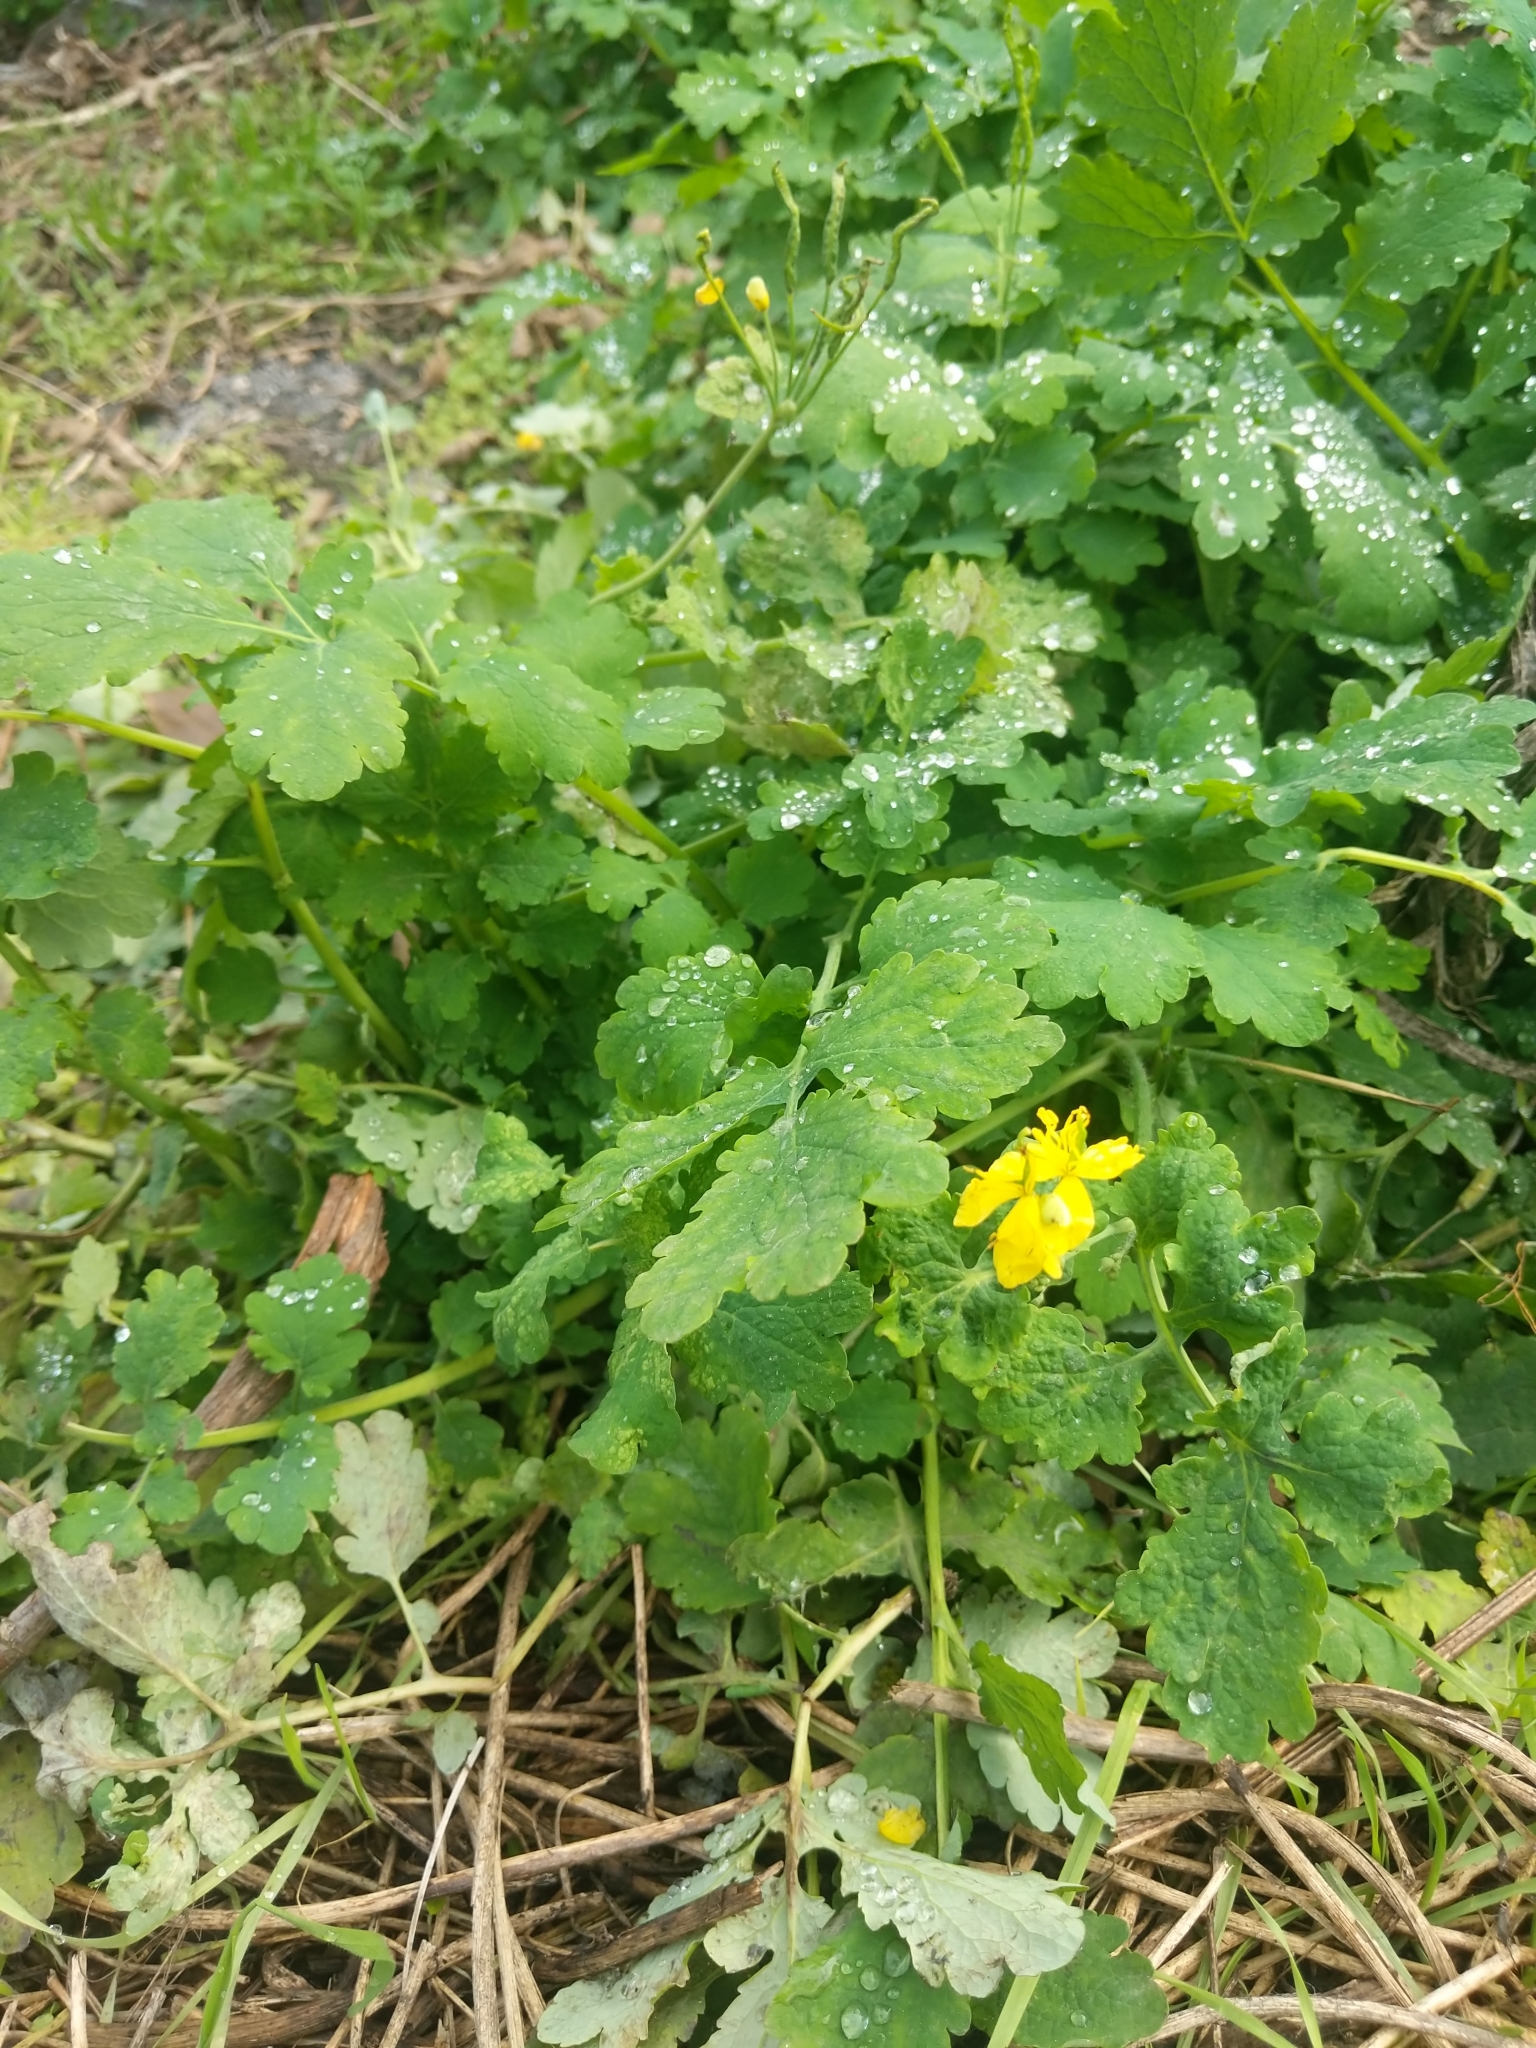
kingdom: Plantae
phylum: Tracheophyta
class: Magnoliopsida
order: Ranunculales
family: Papaveraceae
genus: Chelidonium
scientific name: Chelidonium majus
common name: Greater celandine
